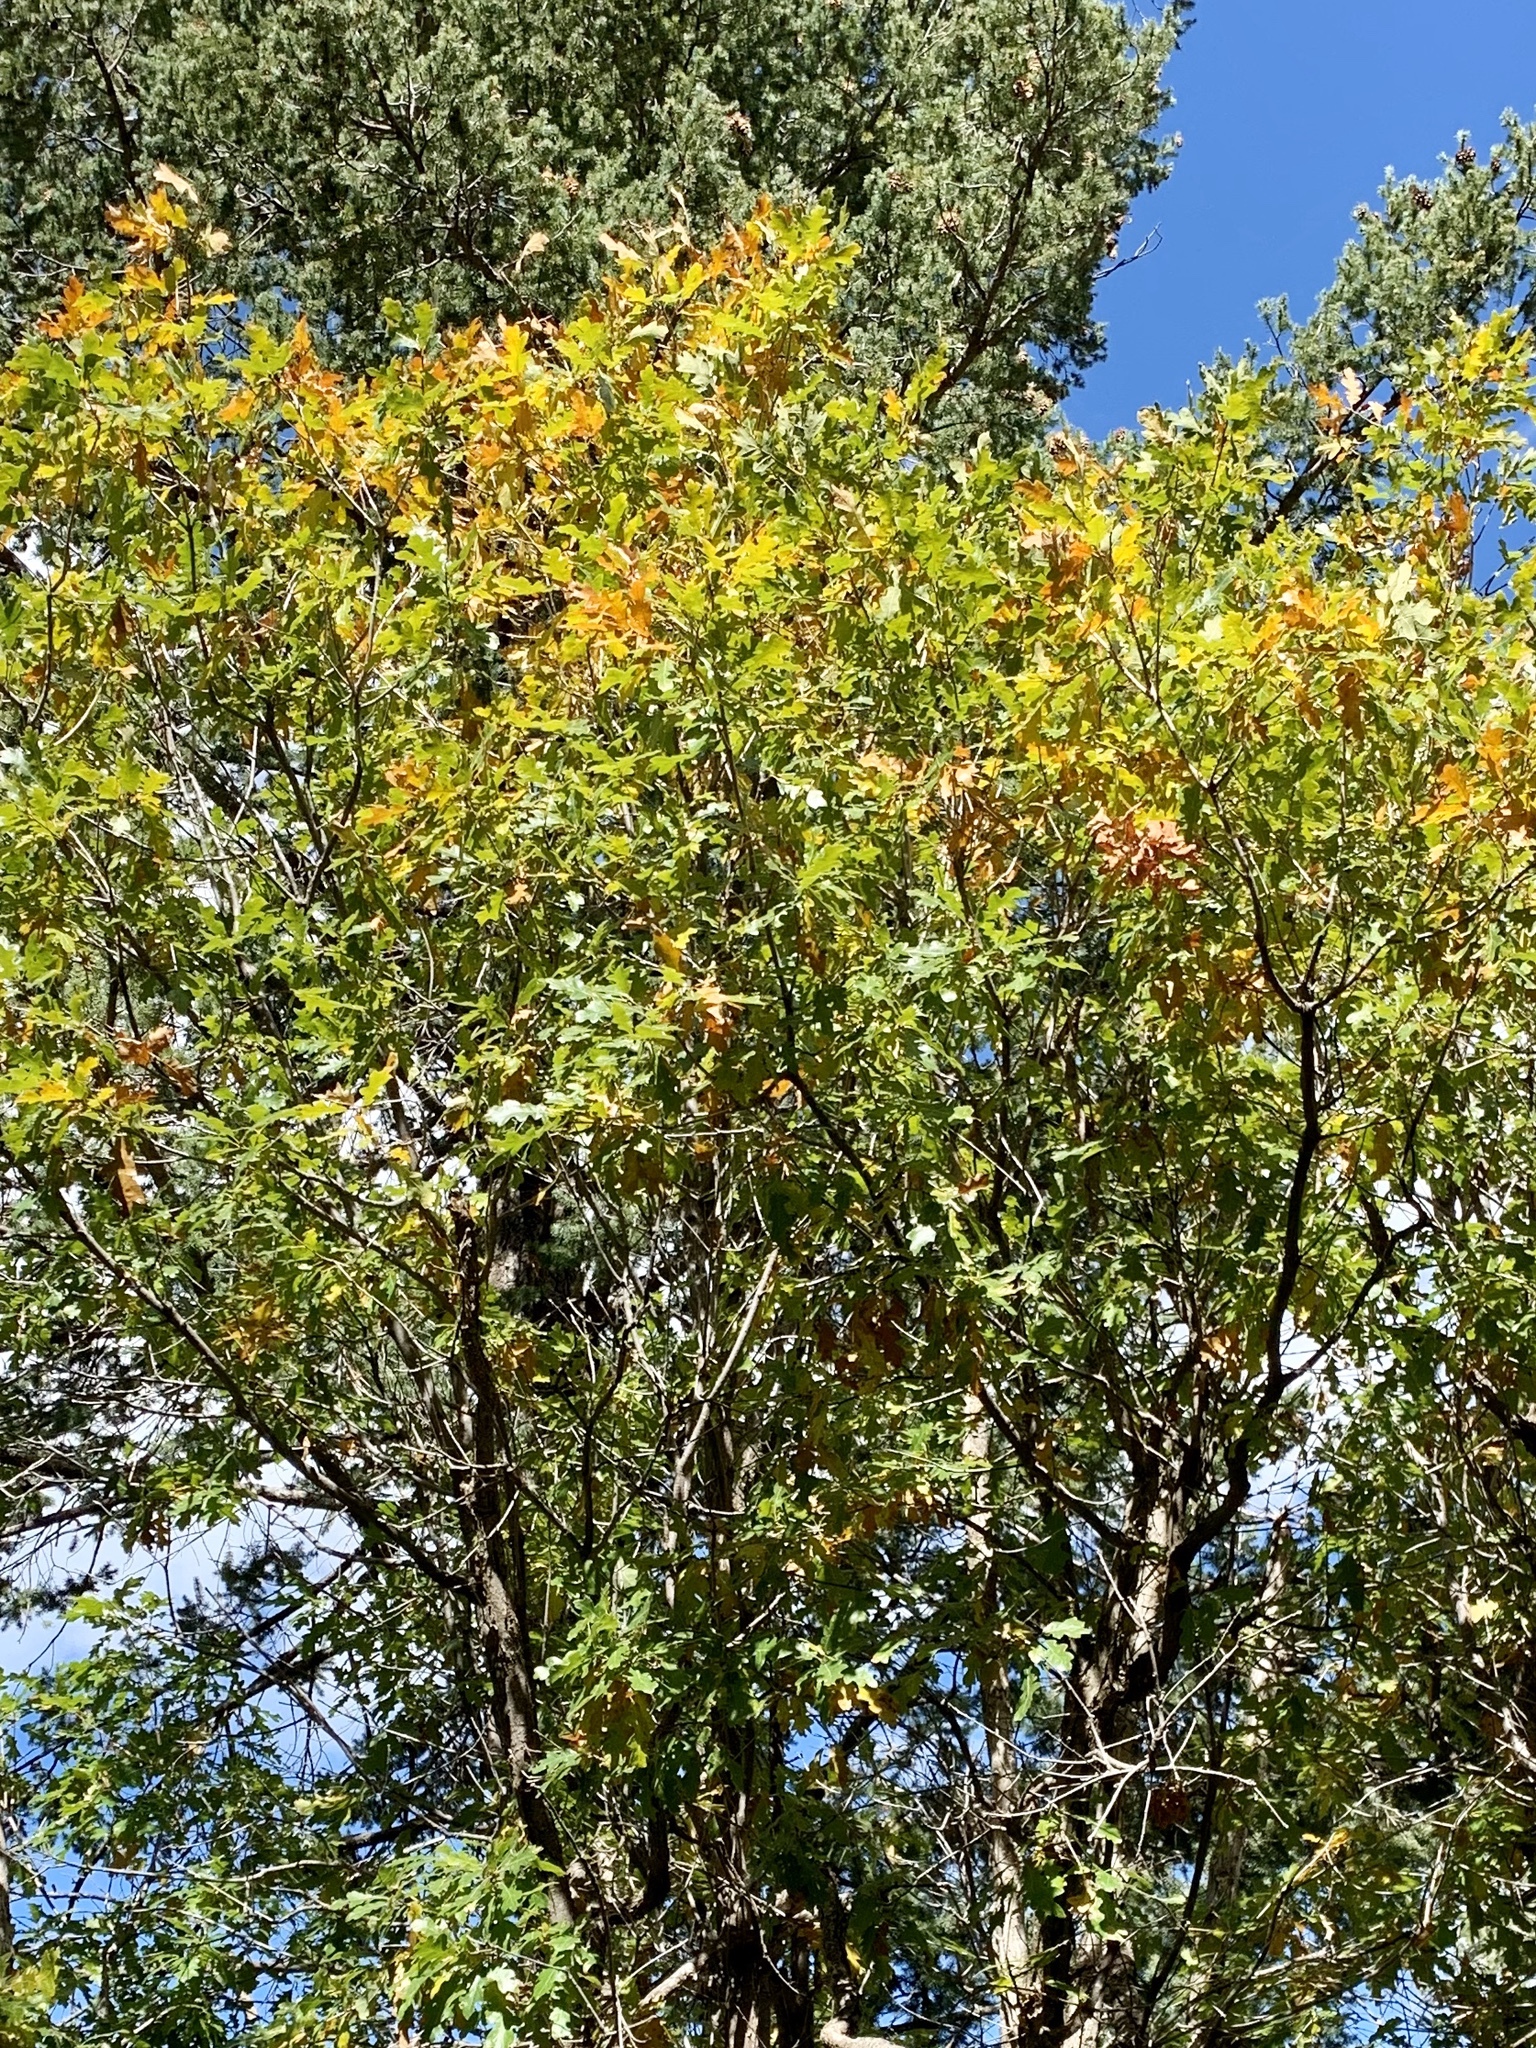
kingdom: Plantae
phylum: Tracheophyta
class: Magnoliopsida
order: Fagales
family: Fagaceae
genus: Quercus
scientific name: Quercus gambelii
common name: Gambel oak
